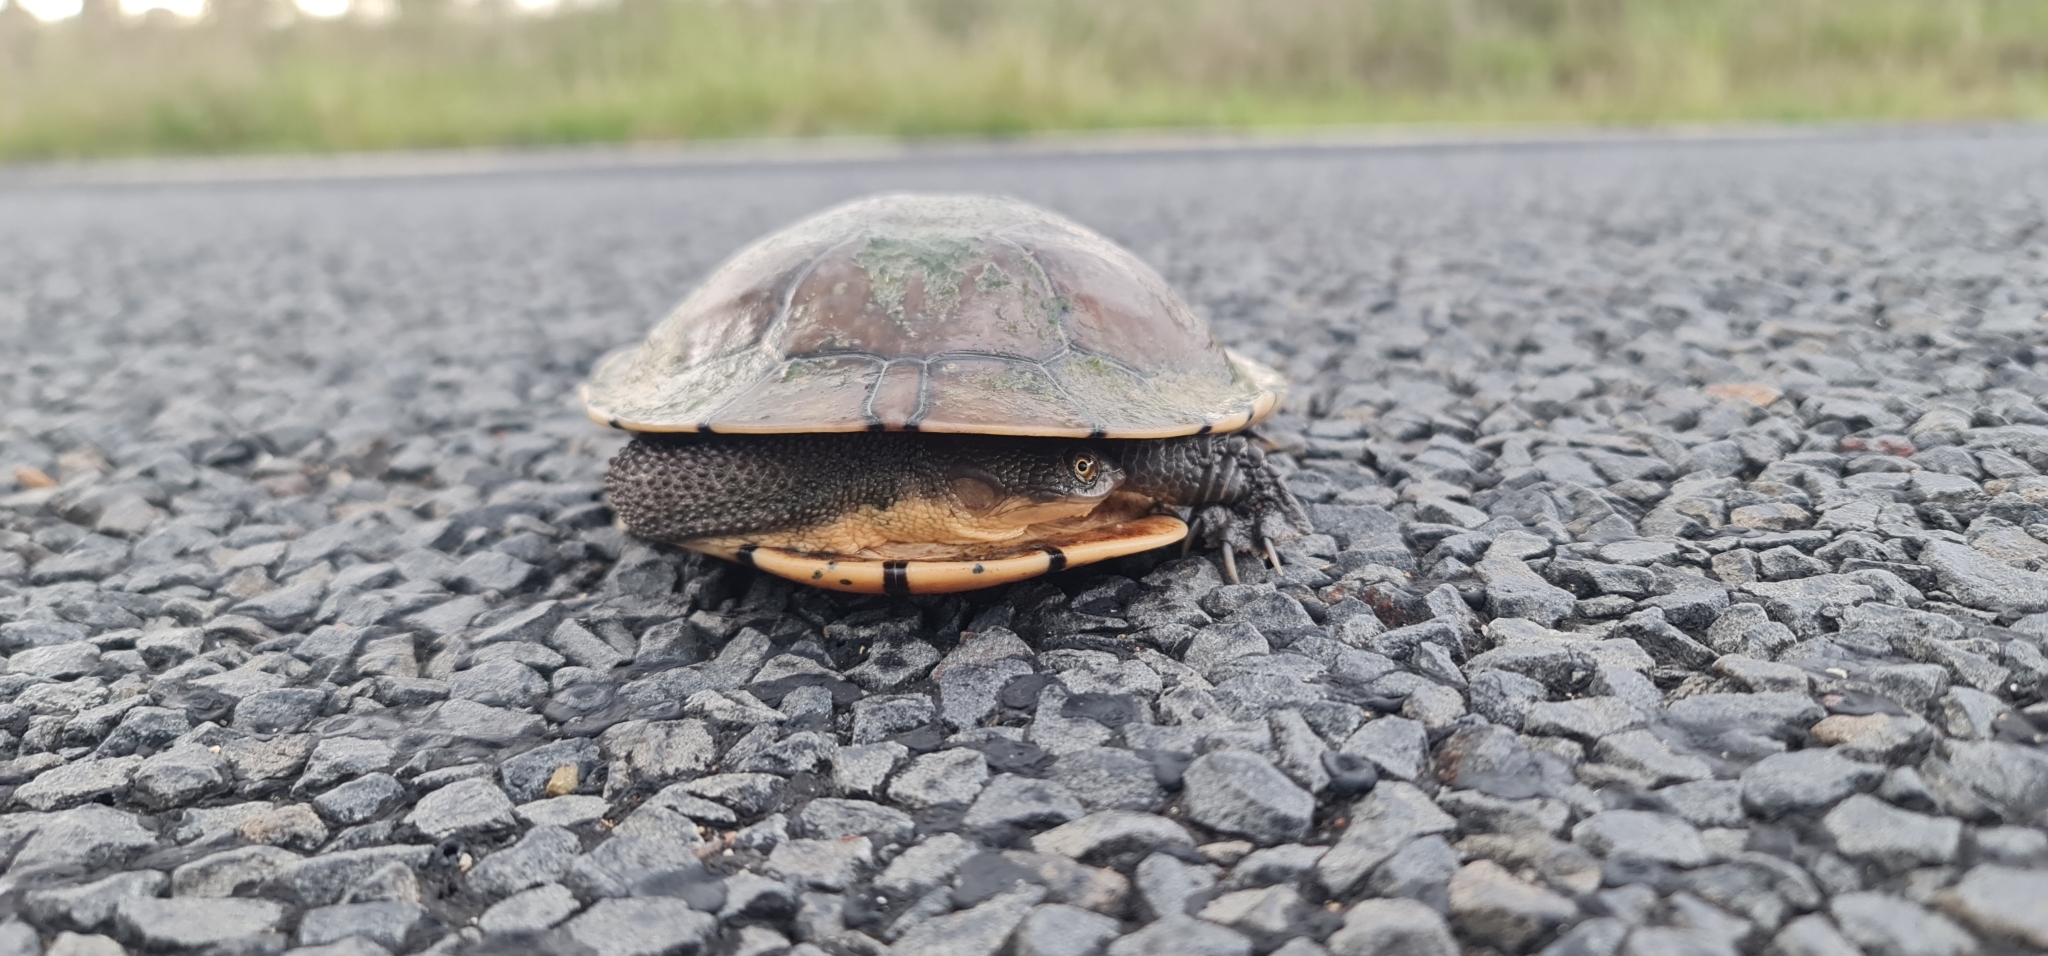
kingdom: Animalia
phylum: Chordata
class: Testudines
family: Chelidae
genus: Chelodina
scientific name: Chelodina longicollis
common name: Eastern snake-necked turtle
